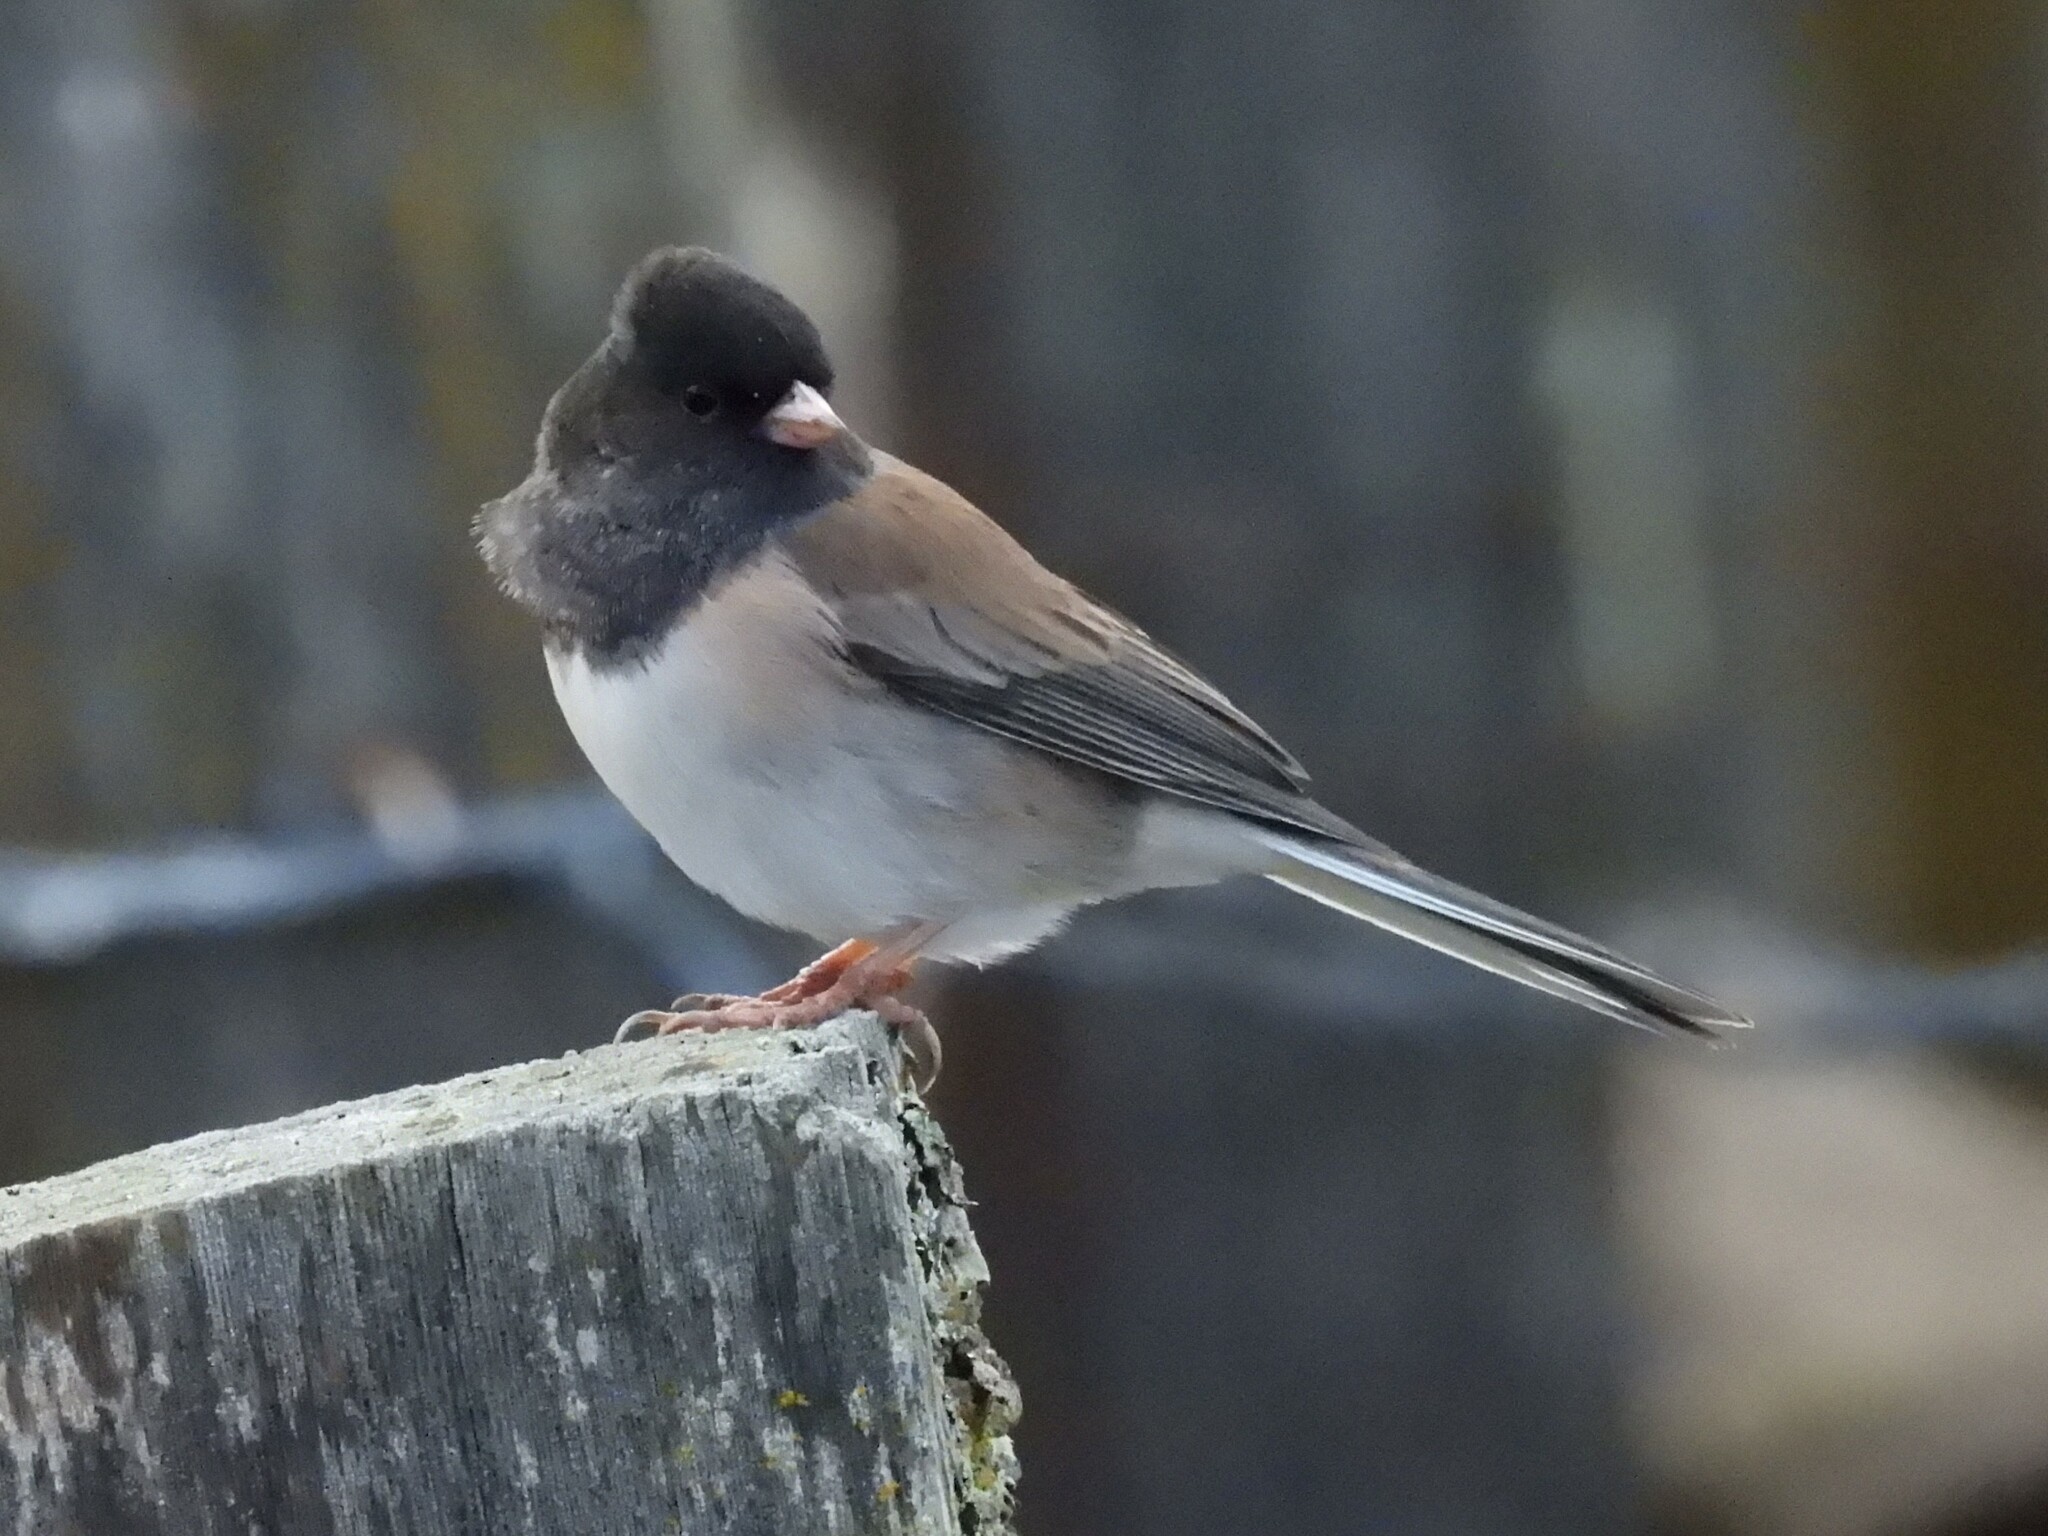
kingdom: Animalia
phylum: Chordata
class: Aves
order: Passeriformes
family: Passerellidae
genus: Junco
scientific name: Junco hyemalis
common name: Dark-eyed junco
